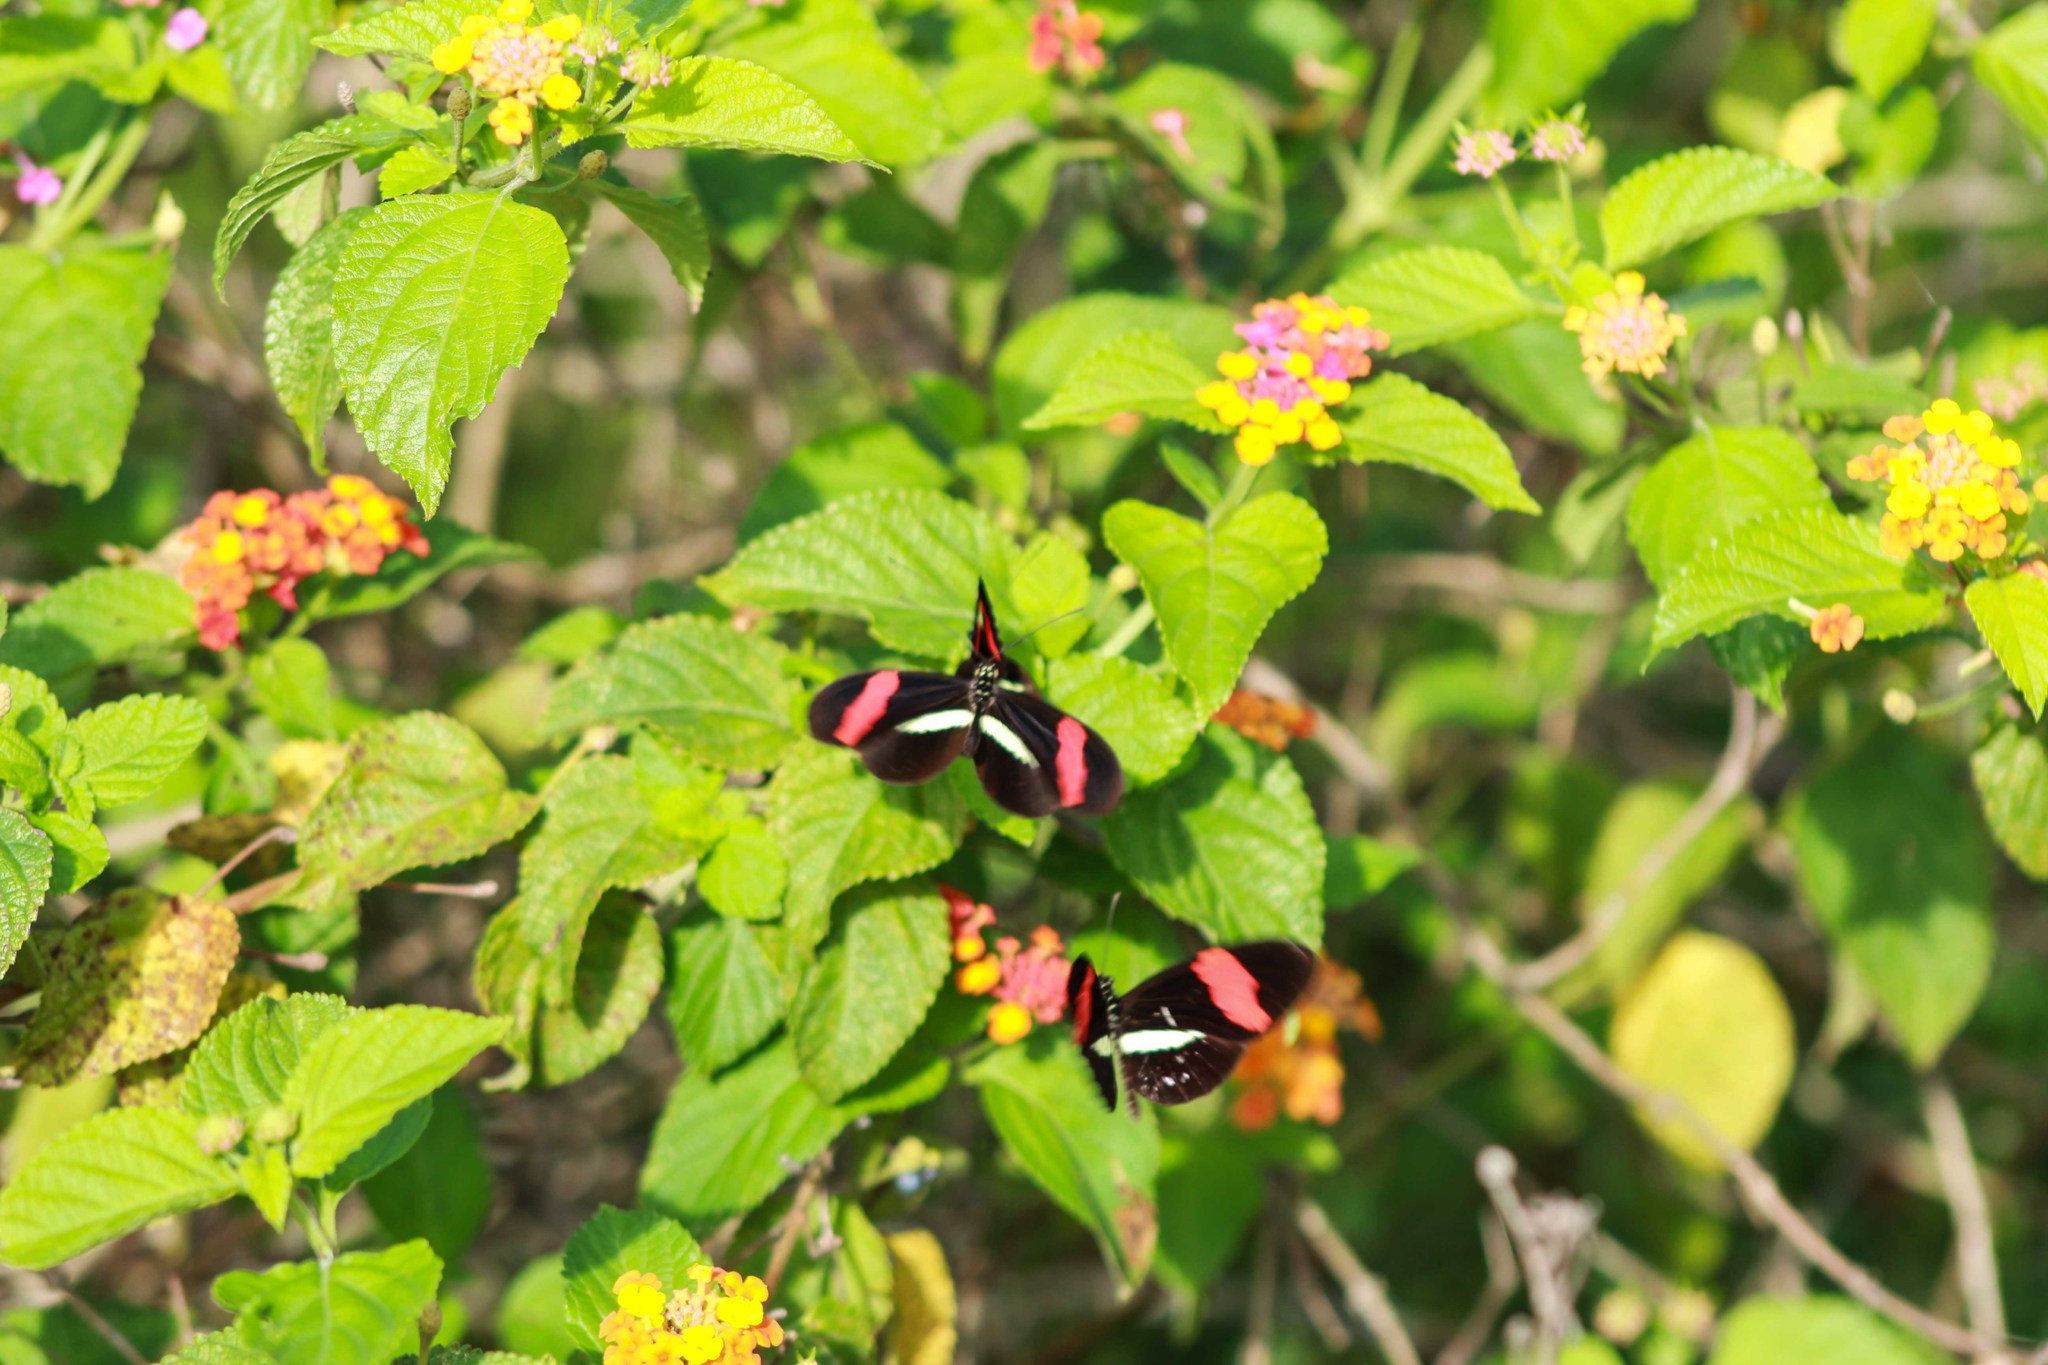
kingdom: Animalia
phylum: Arthropoda
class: Insecta
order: Lepidoptera
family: Nymphalidae
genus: Tirumala
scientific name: Tirumala petiverana
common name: Blue monarch
